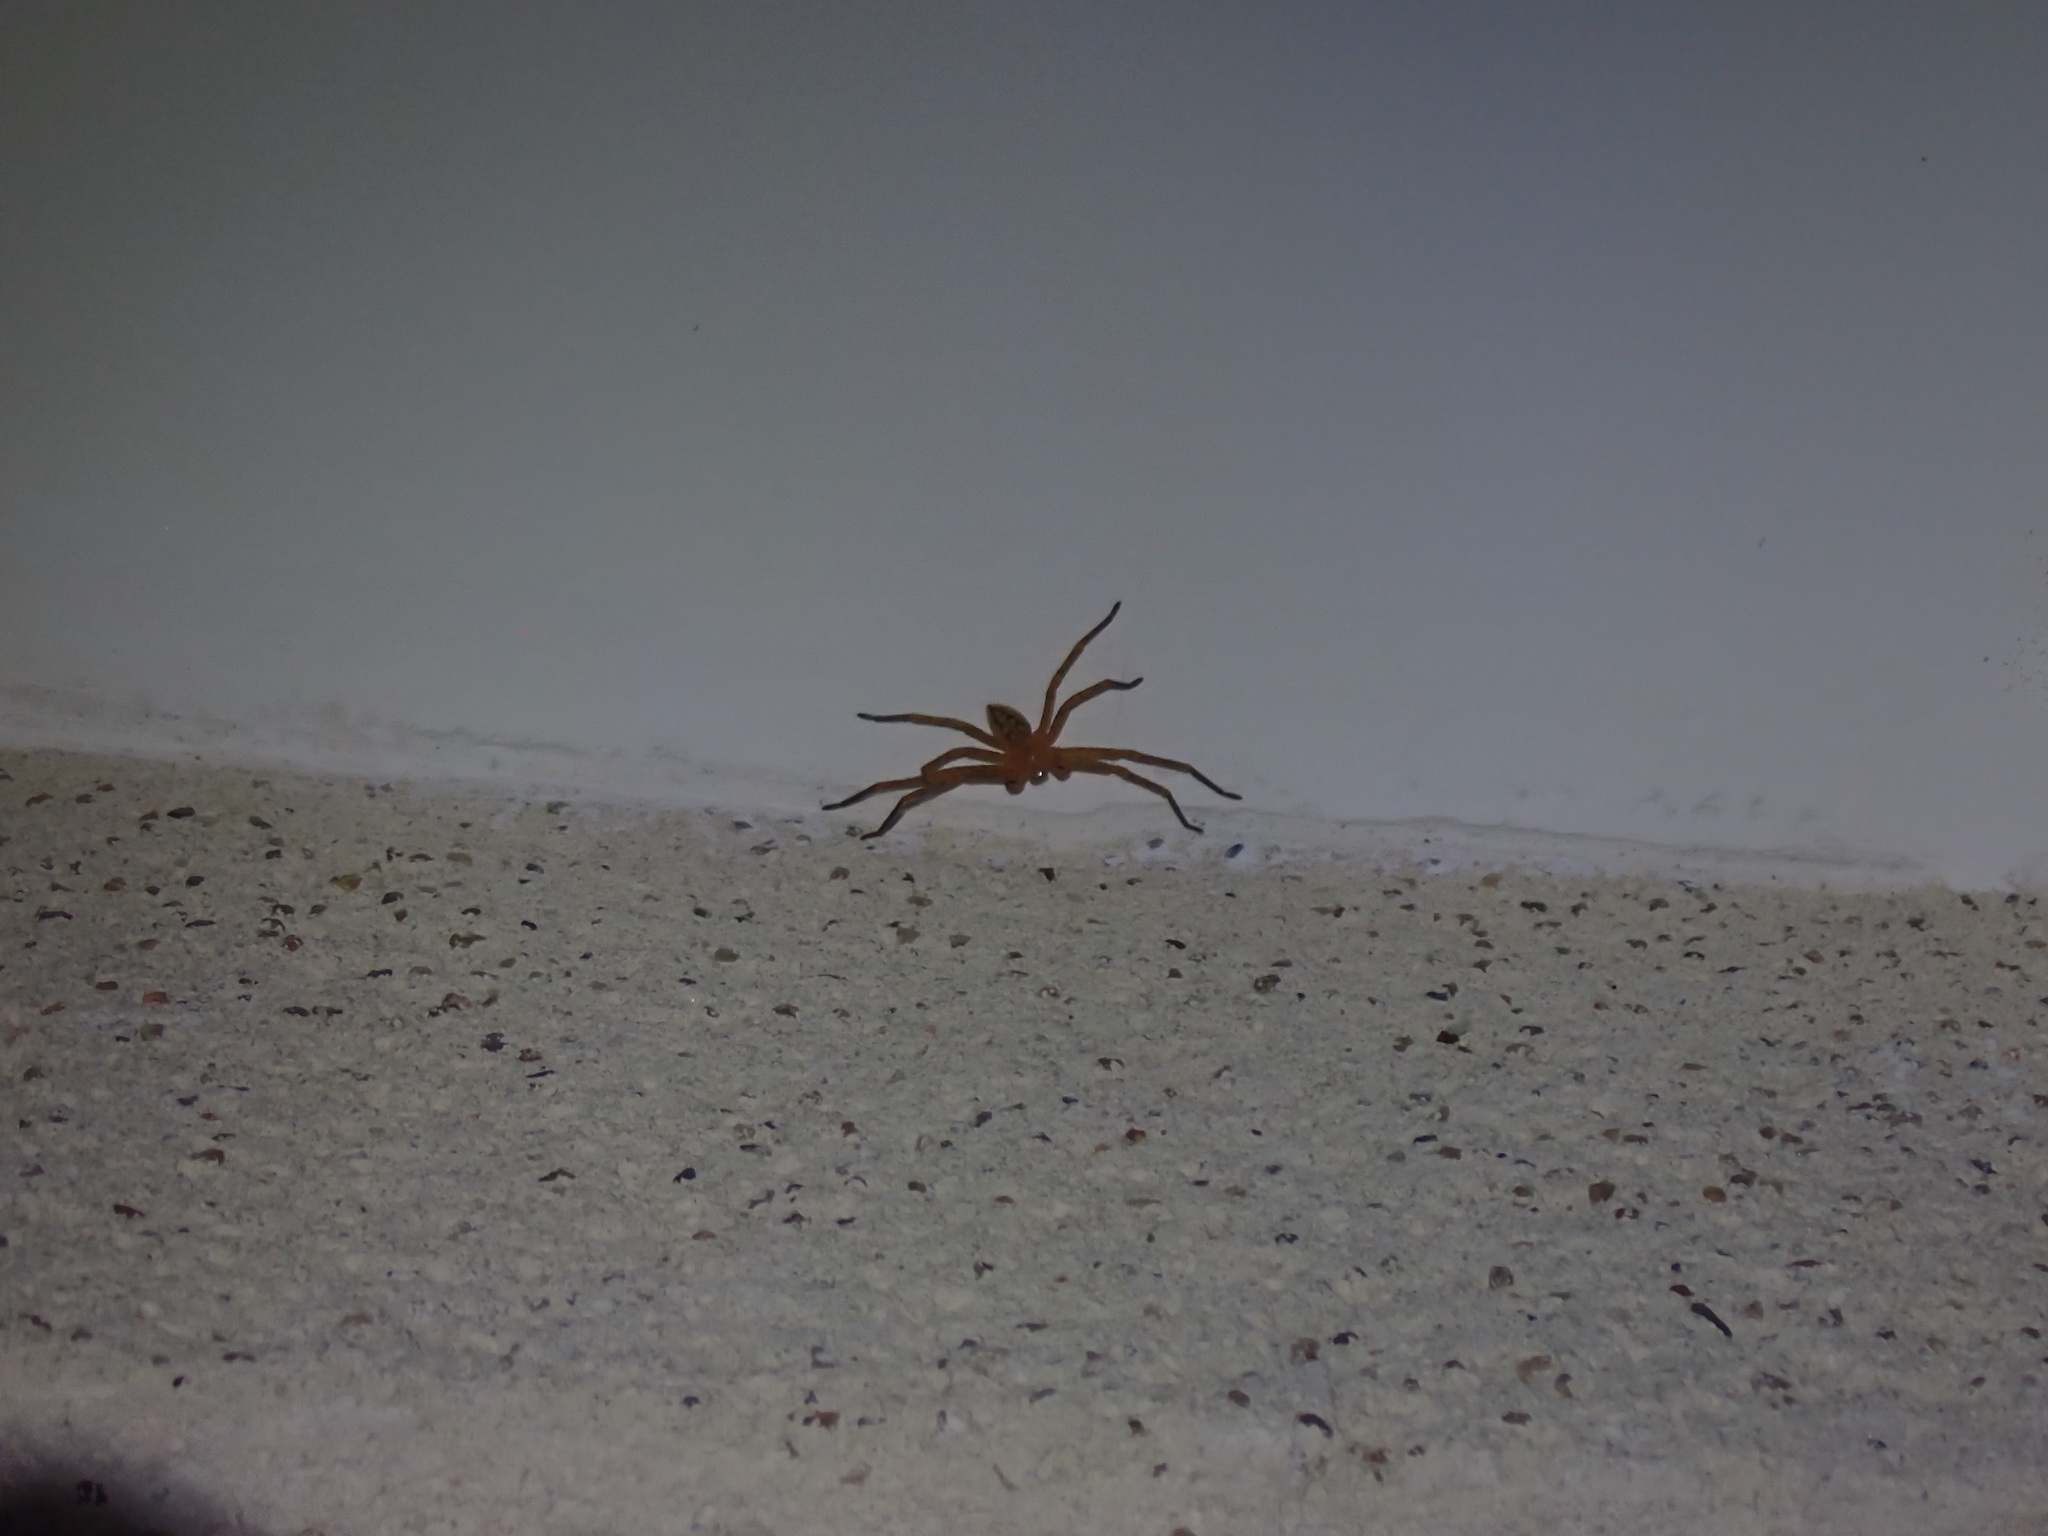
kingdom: Animalia
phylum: Arthropoda
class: Arachnida
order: Araneae
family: Sparassidae
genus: Olios
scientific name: Olios argelasius
